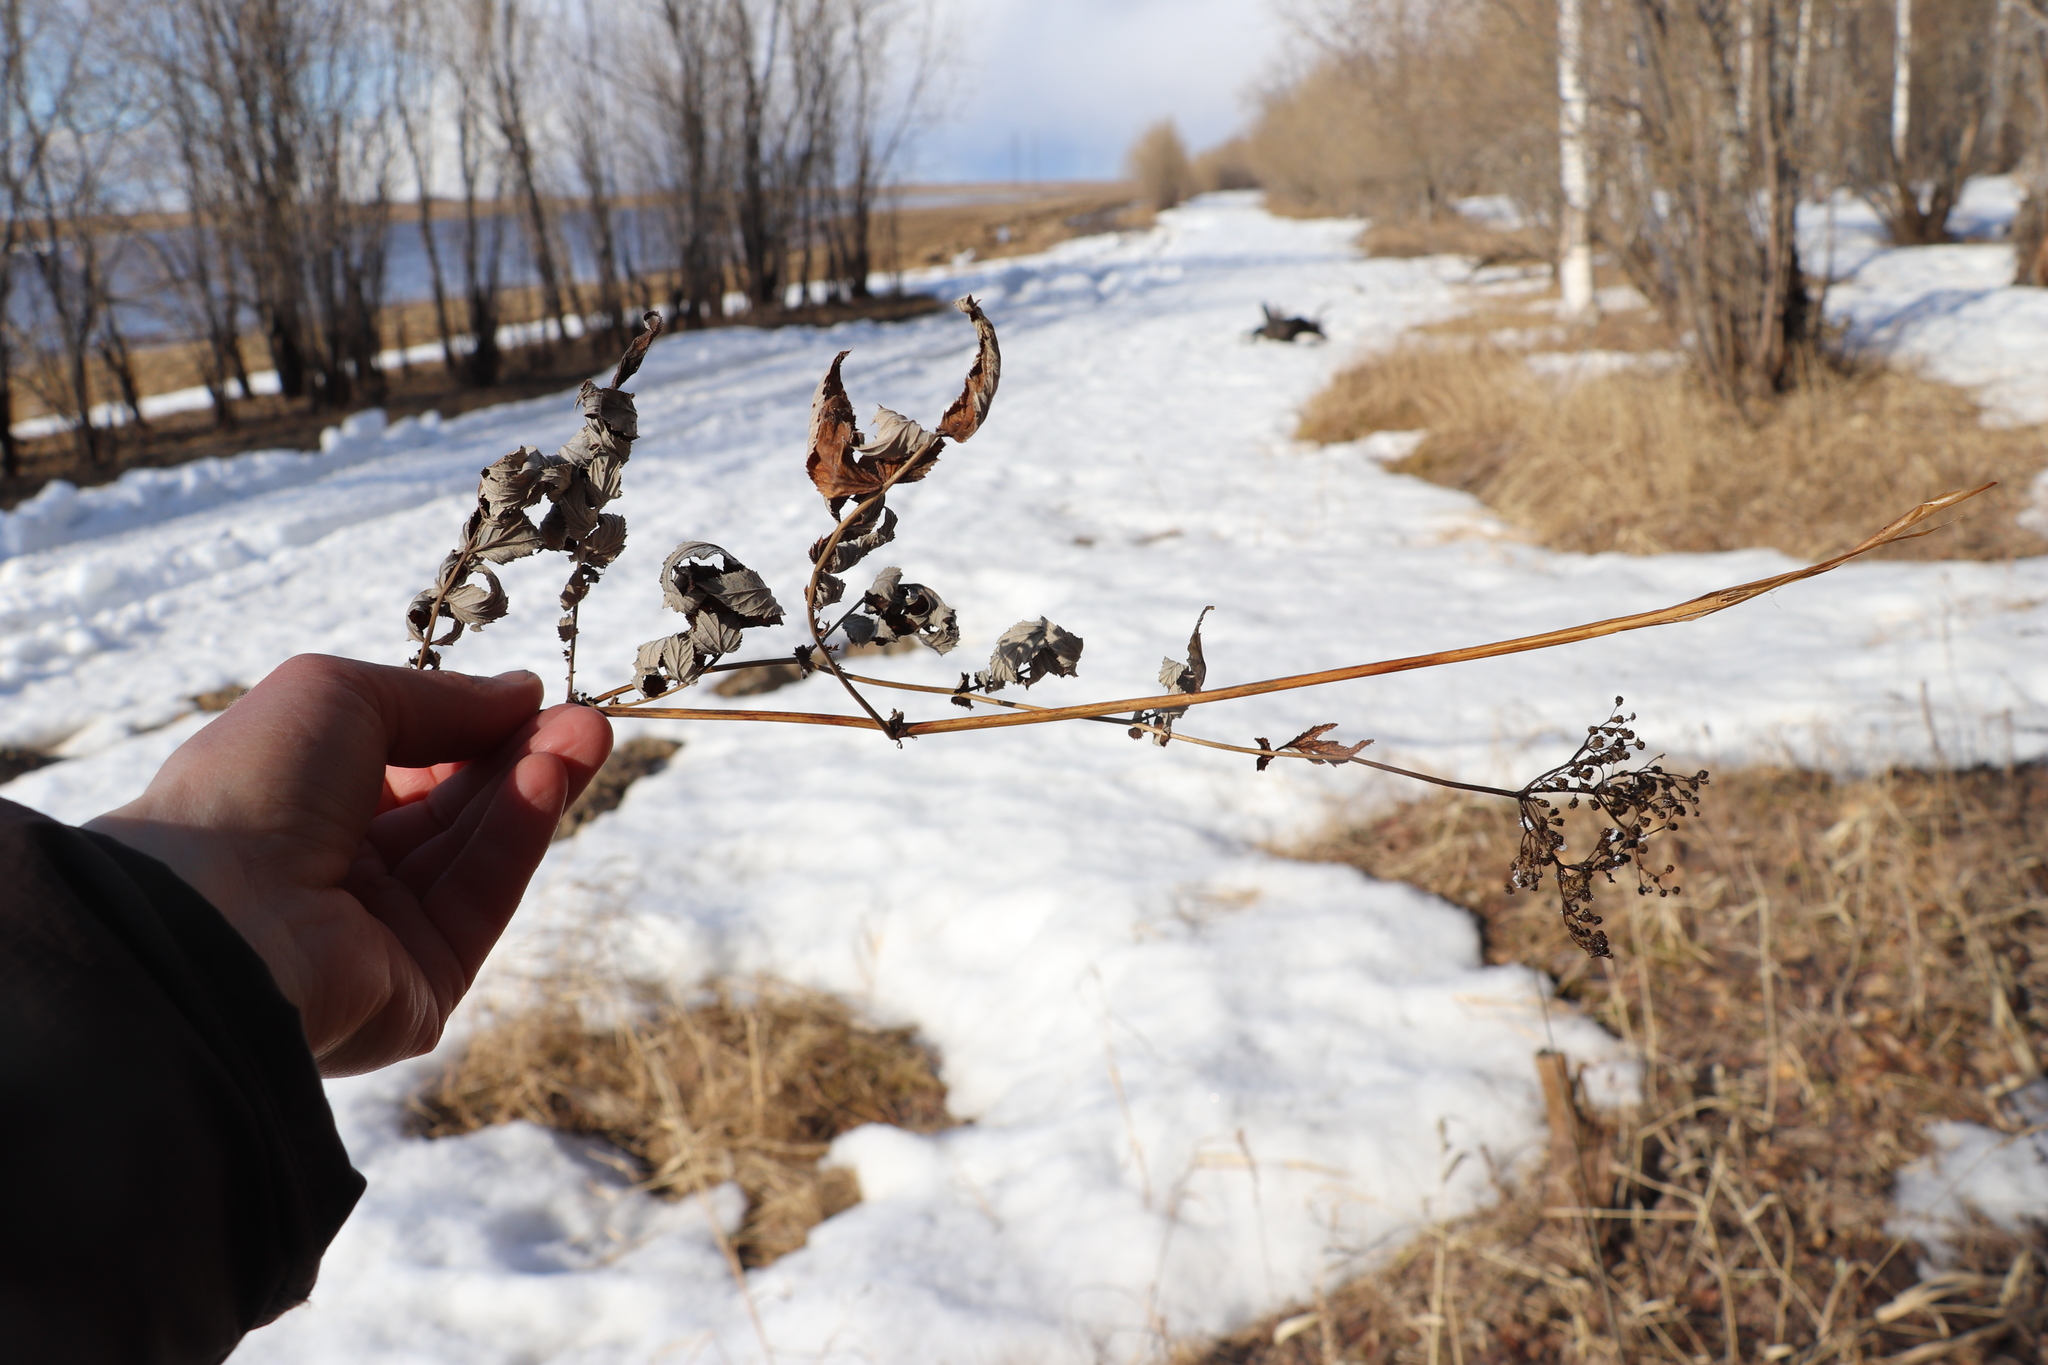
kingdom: Plantae
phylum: Tracheophyta
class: Magnoliopsida
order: Rosales
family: Rosaceae
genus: Filipendula
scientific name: Filipendula ulmaria
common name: Meadowsweet
